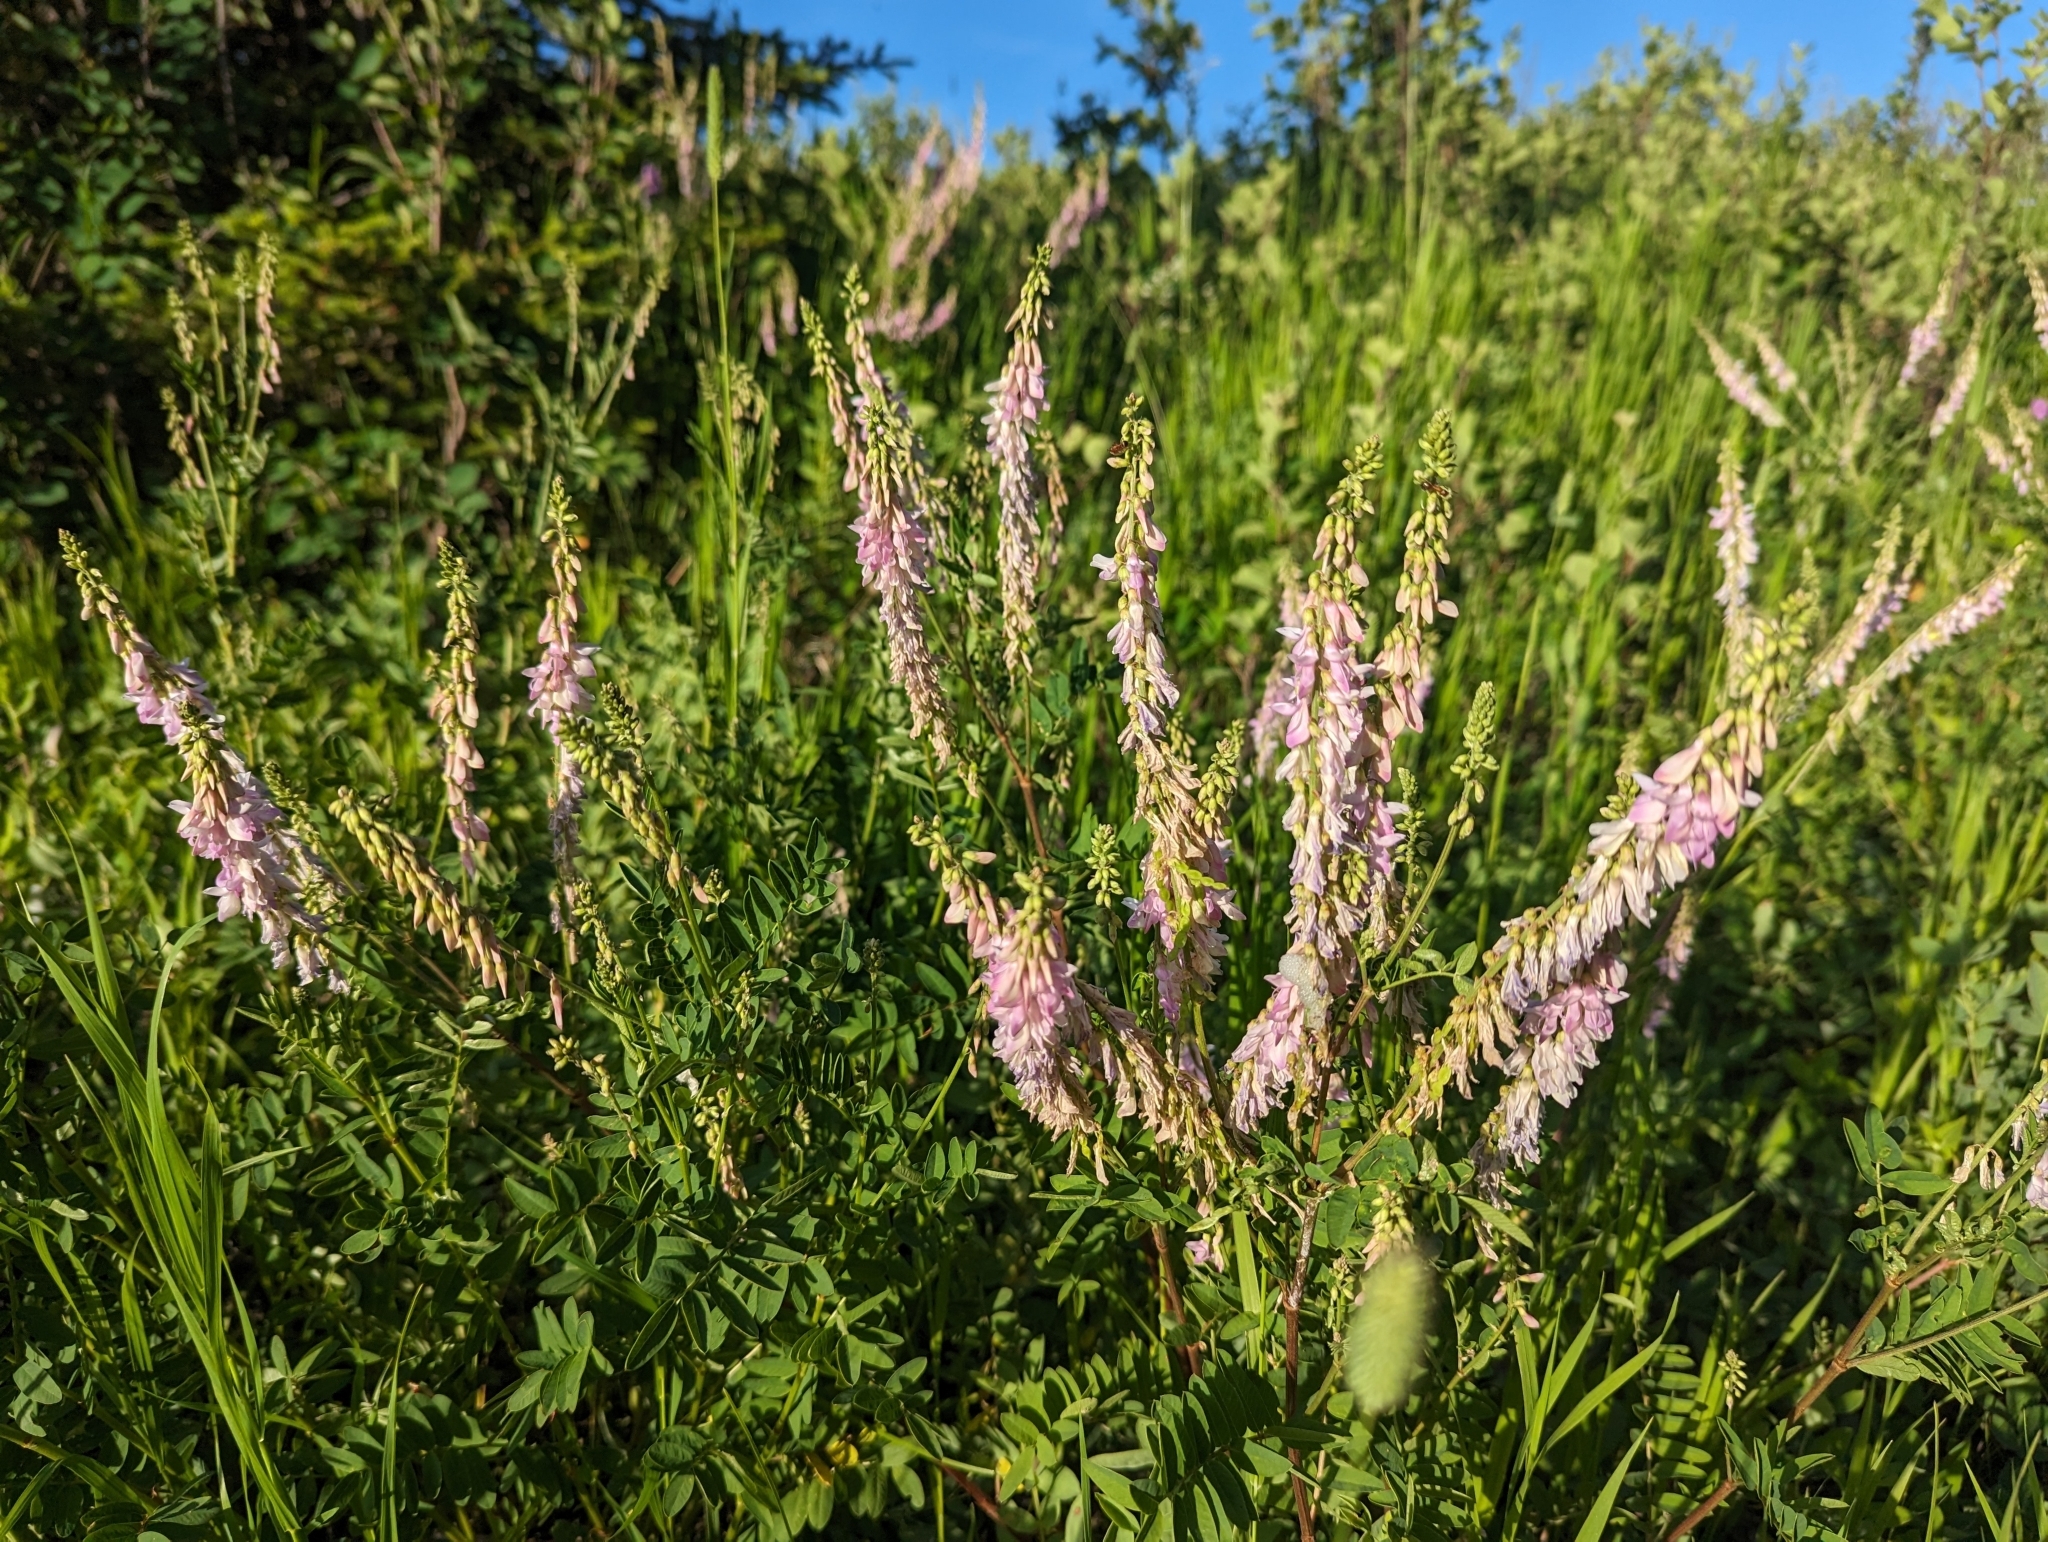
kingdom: Plantae
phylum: Tracheophyta
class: Magnoliopsida
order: Fabales
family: Fabaceae
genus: Hedysarum
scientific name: Hedysarum alpinum
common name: Alpine sweet-vetch
